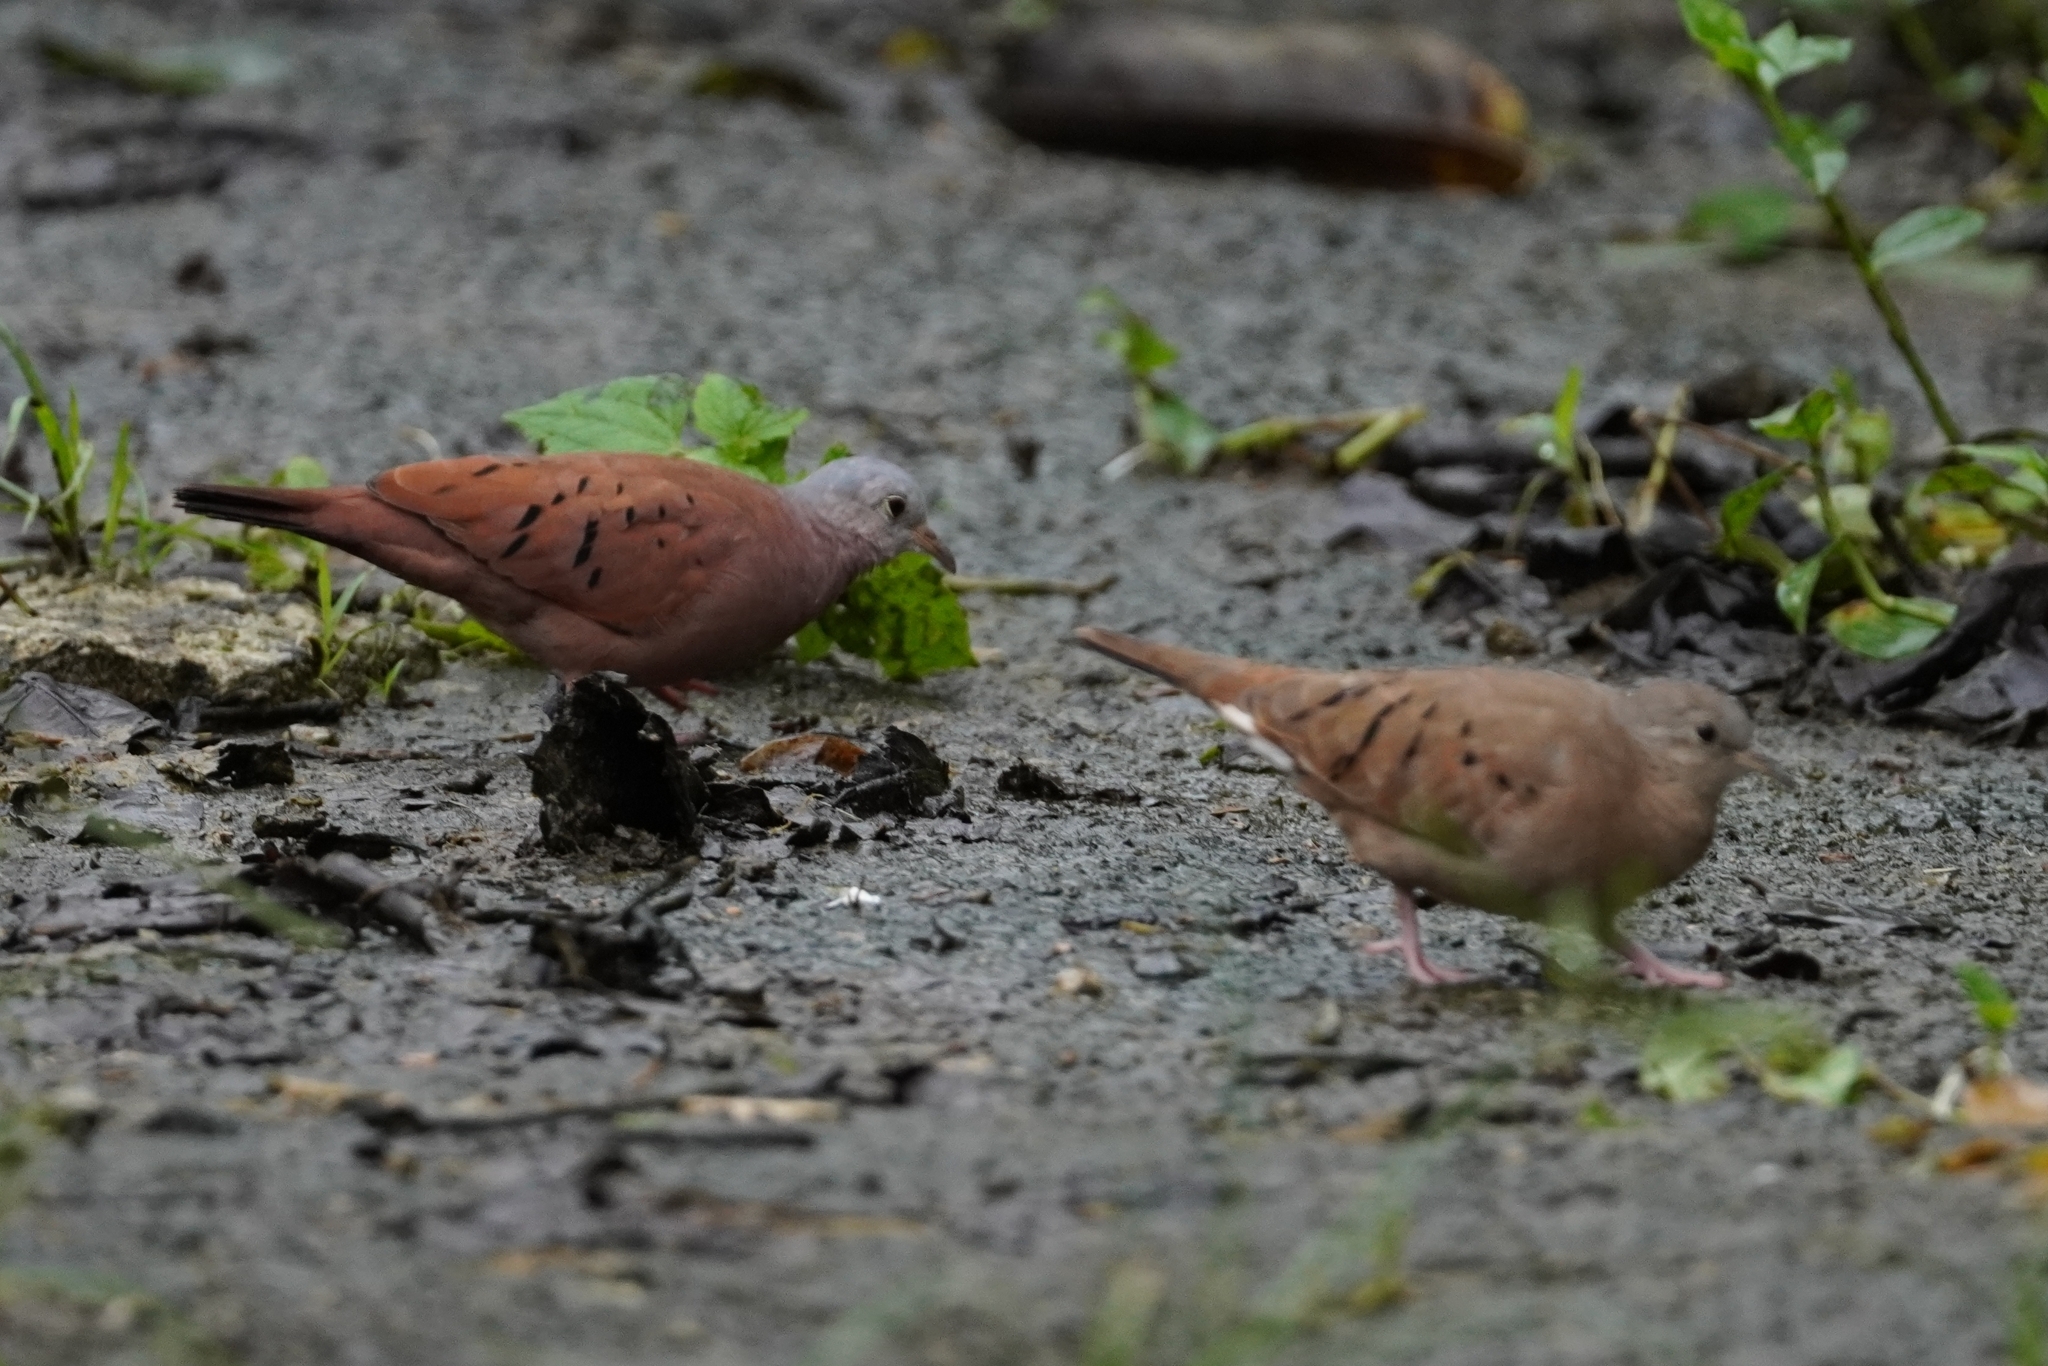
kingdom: Animalia
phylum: Chordata
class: Aves
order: Columbiformes
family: Columbidae
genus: Columbina
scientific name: Columbina talpacoti
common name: Ruddy ground dove
